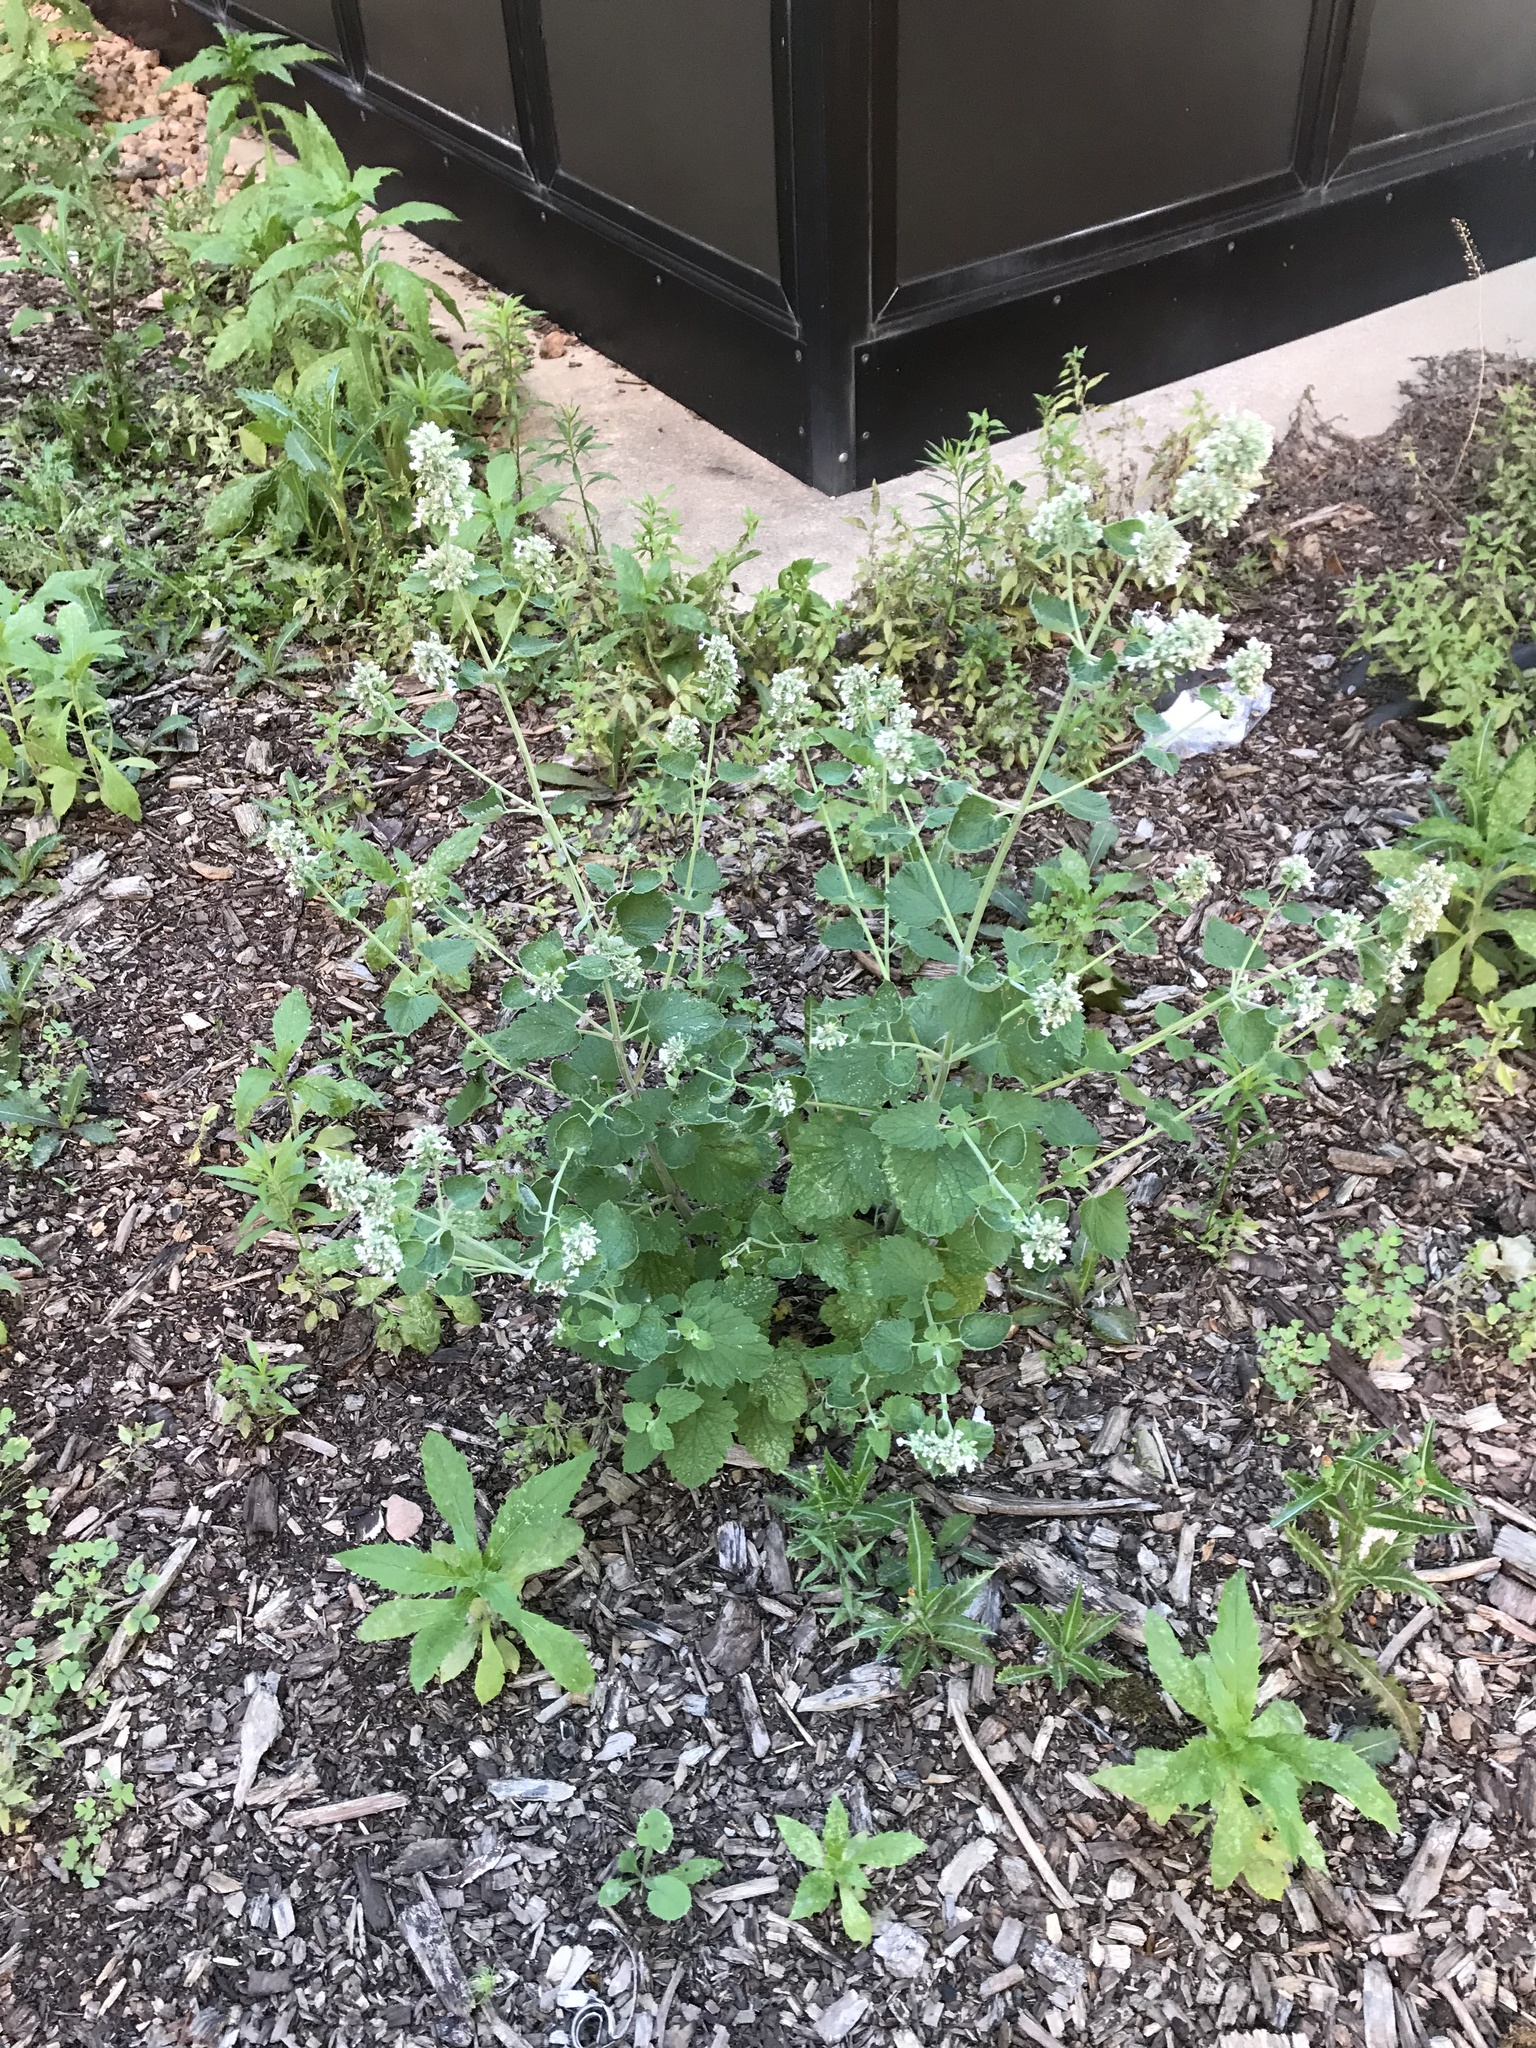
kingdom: Plantae
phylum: Tracheophyta
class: Magnoliopsida
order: Lamiales
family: Lamiaceae
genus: Nepeta
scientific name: Nepeta cataria
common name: Catnip
